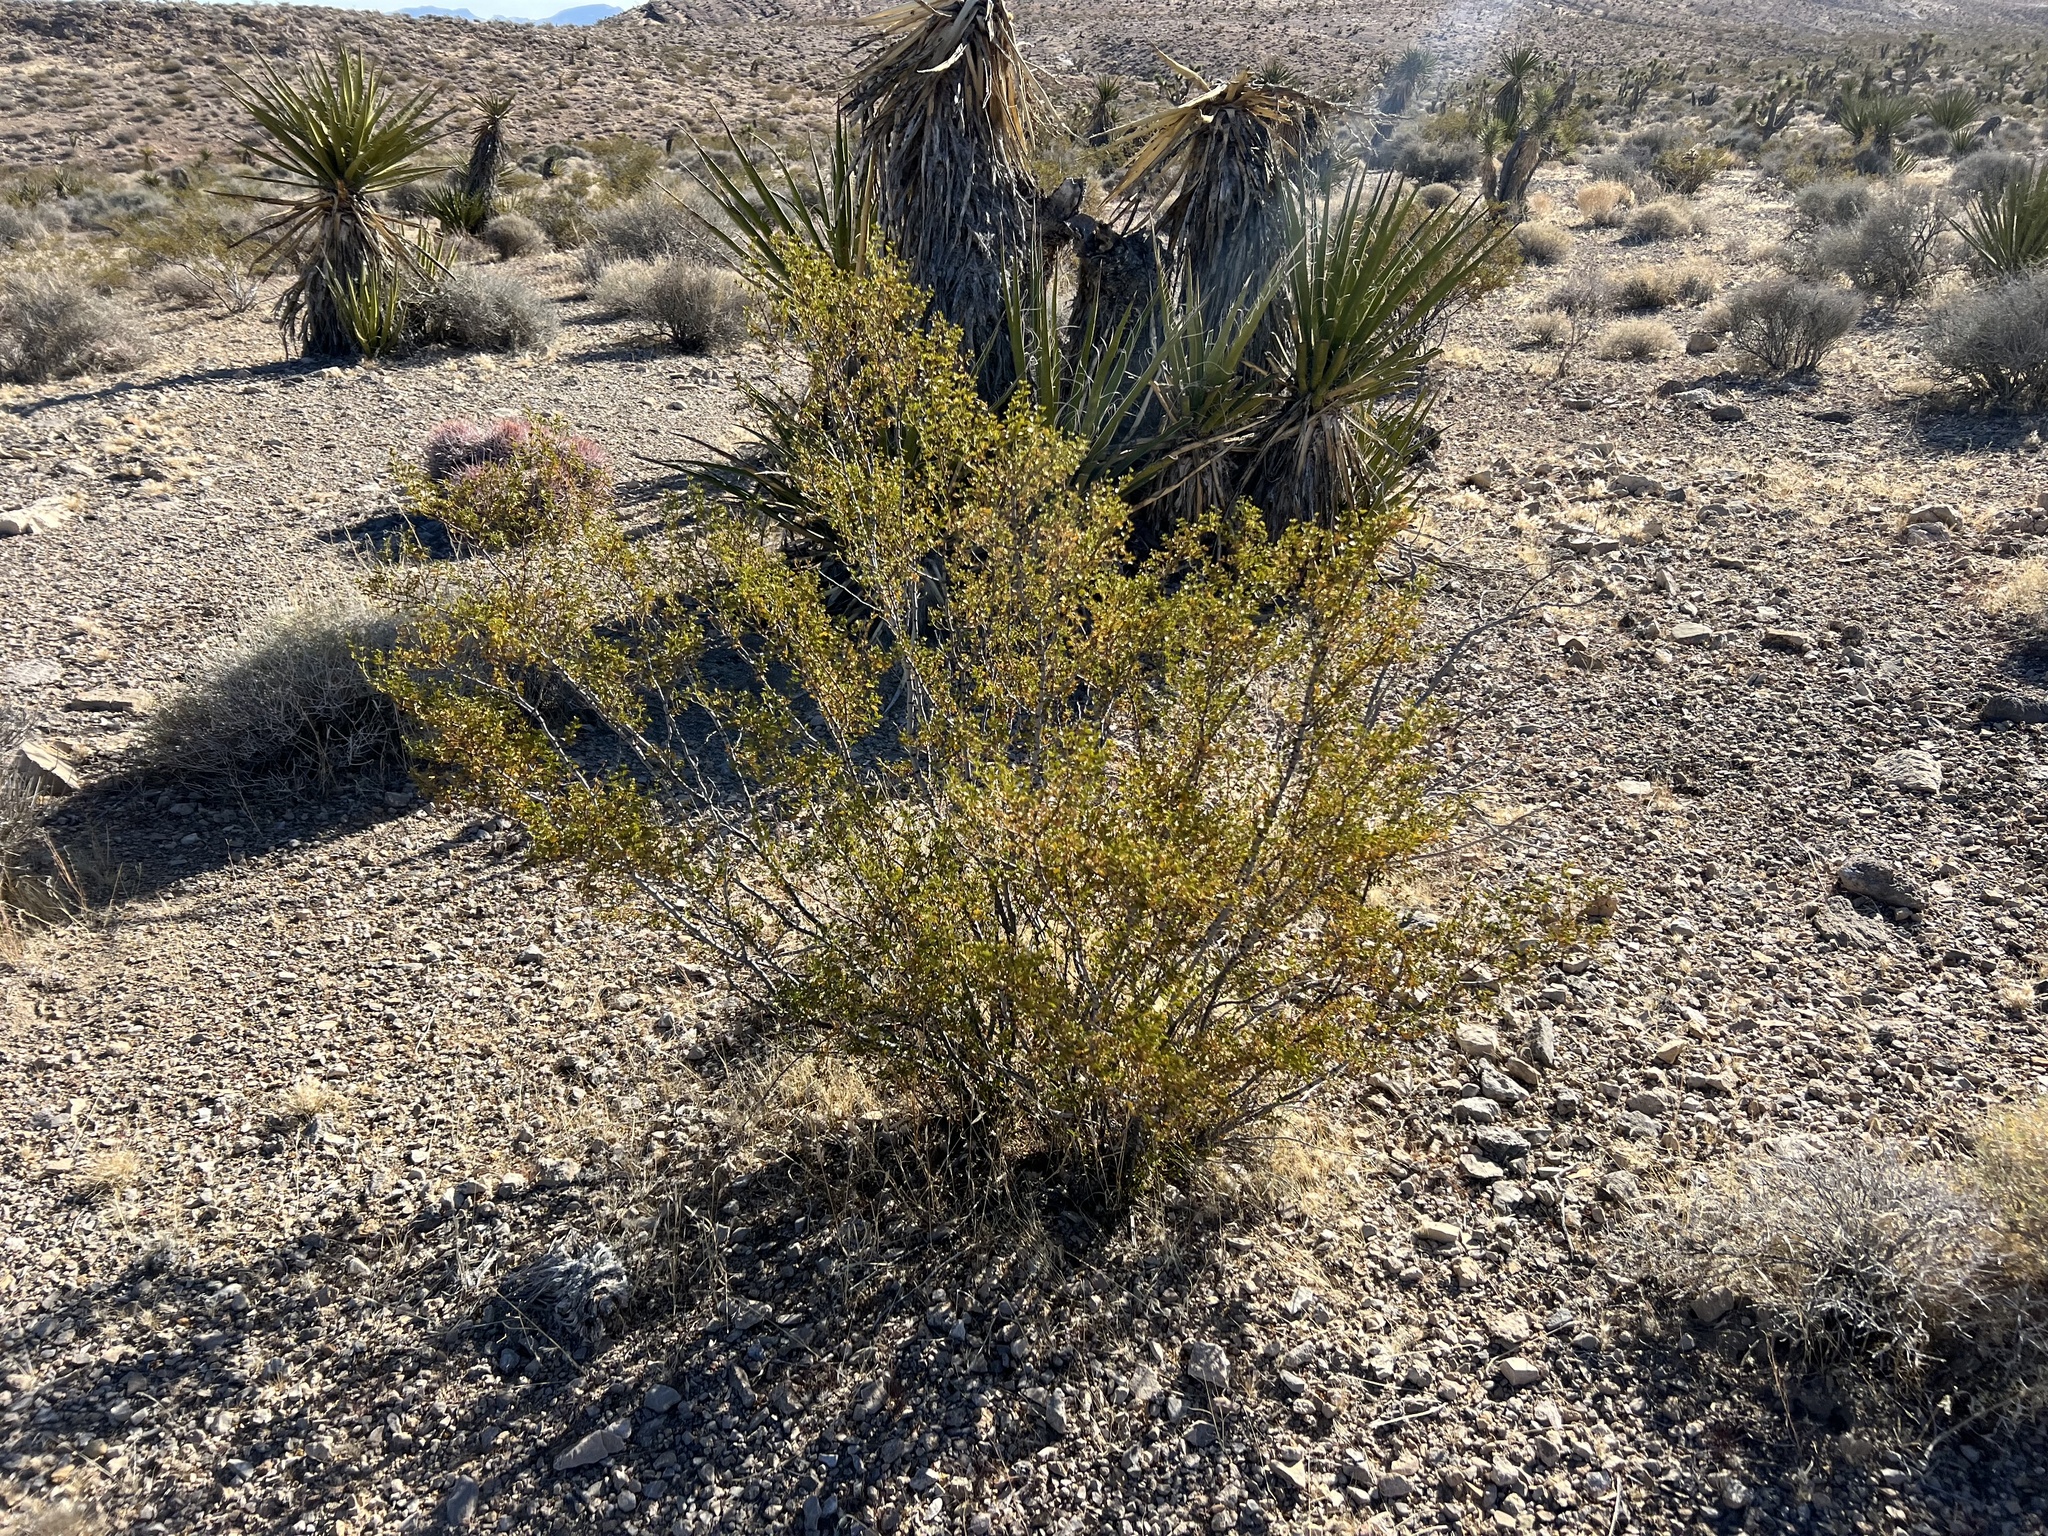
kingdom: Plantae
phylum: Tracheophyta
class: Magnoliopsida
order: Zygophyllales
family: Zygophyllaceae
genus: Larrea
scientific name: Larrea tridentata
